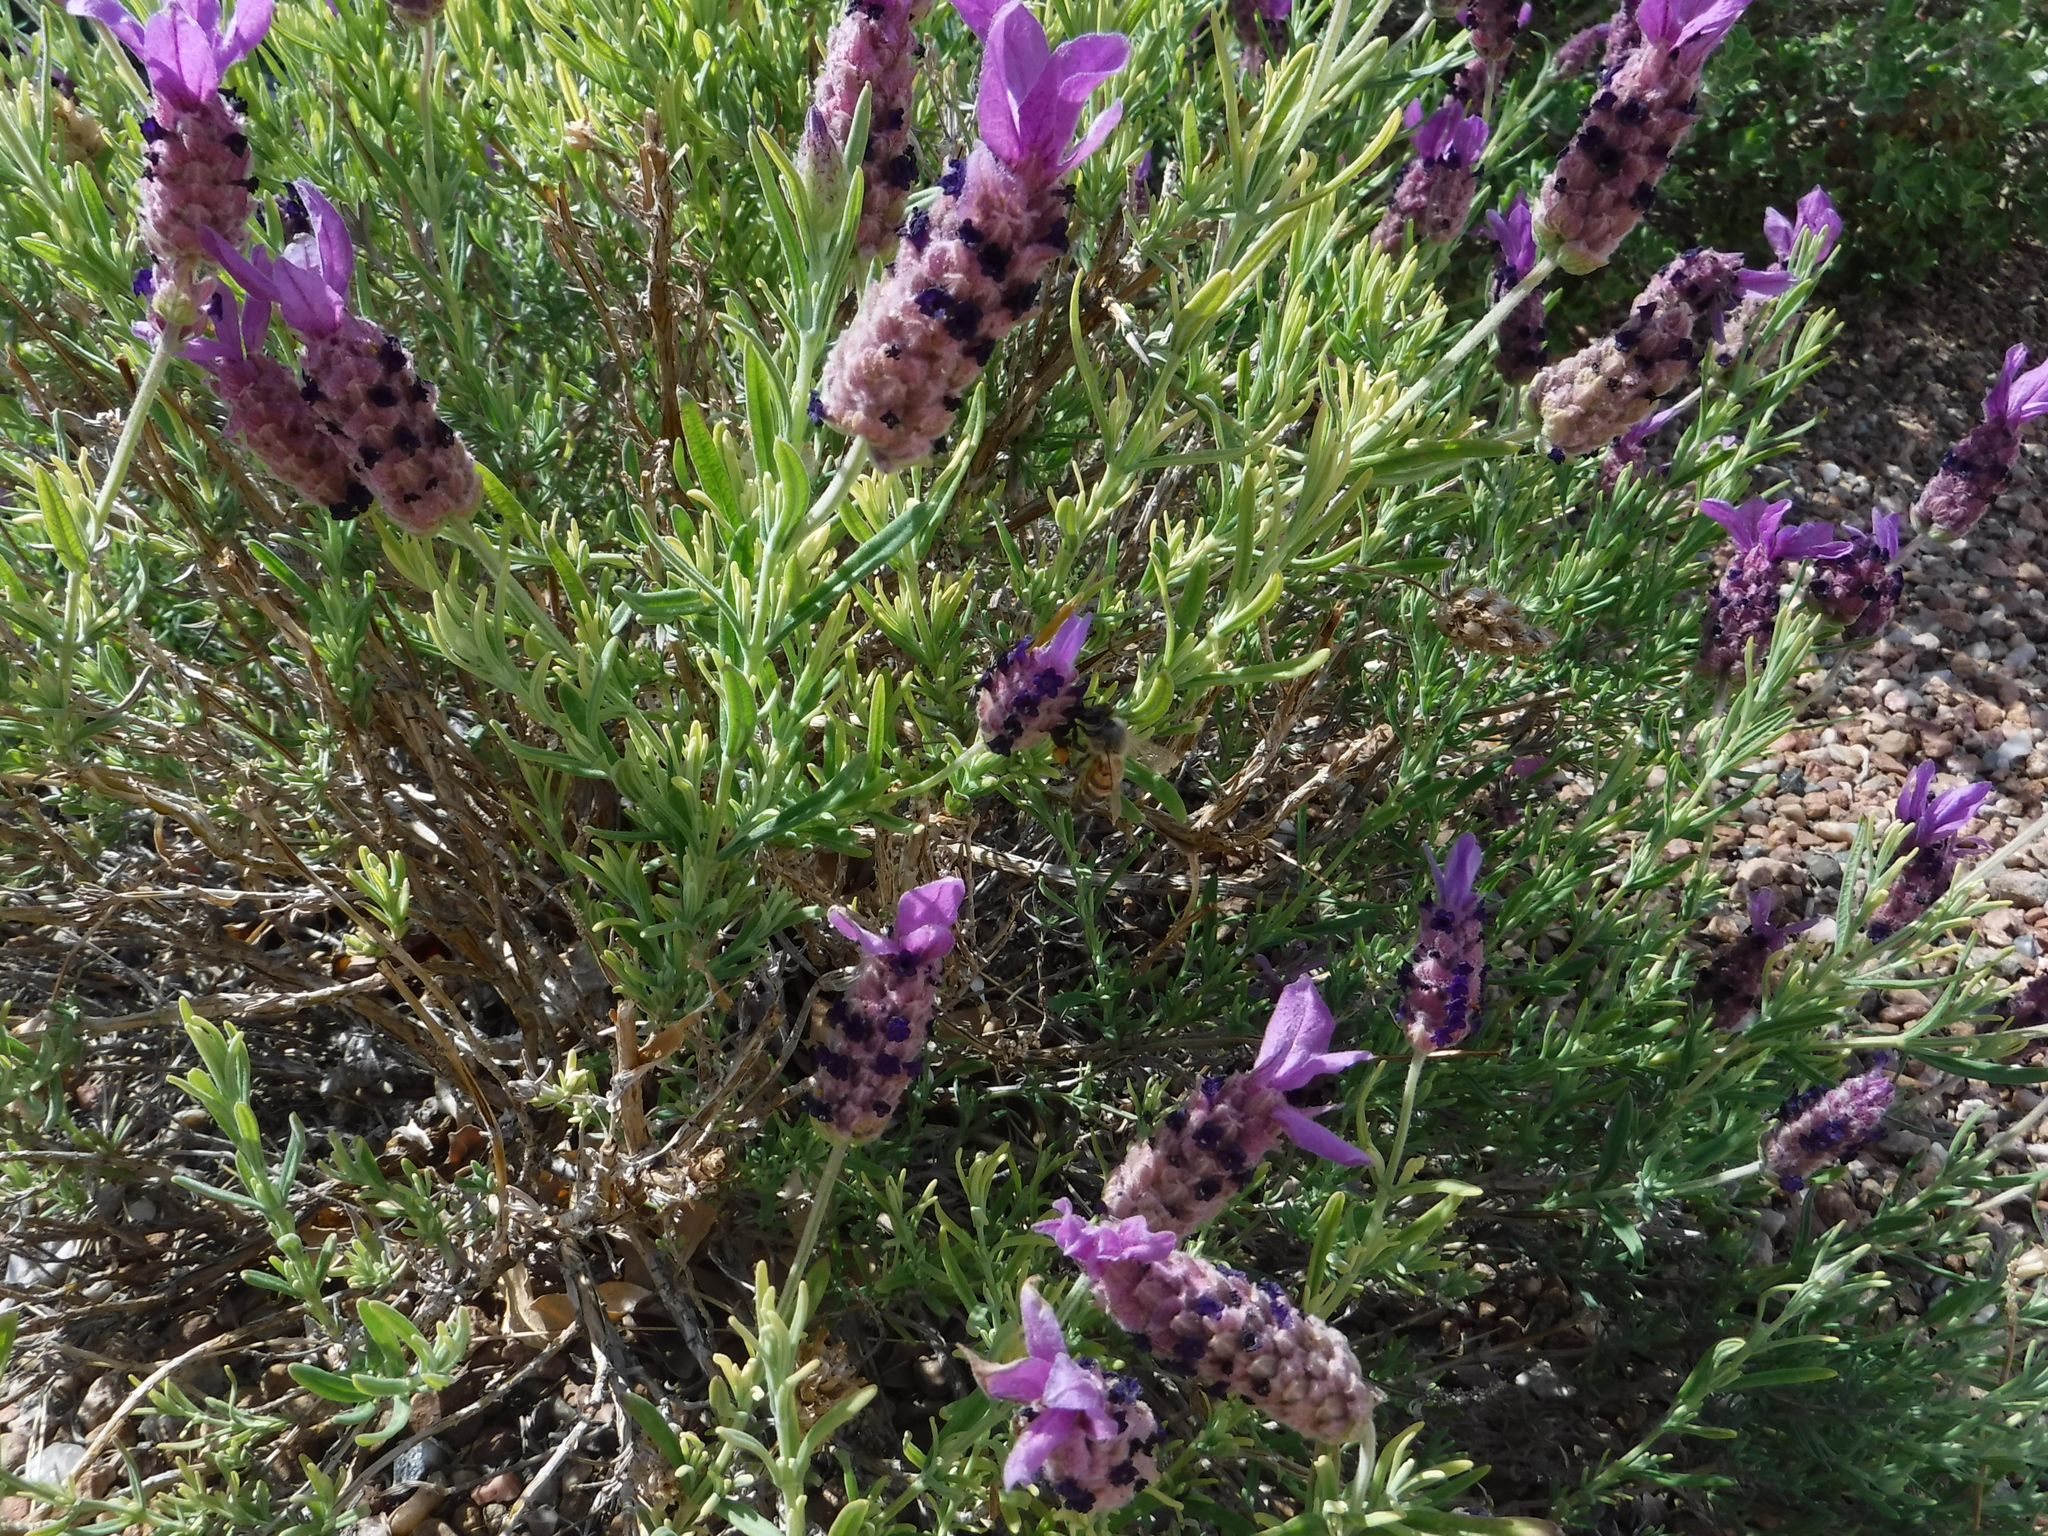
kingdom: Animalia
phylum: Arthropoda
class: Insecta
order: Hymenoptera
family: Apidae
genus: Apis
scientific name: Apis mellifera
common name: Honey bee
